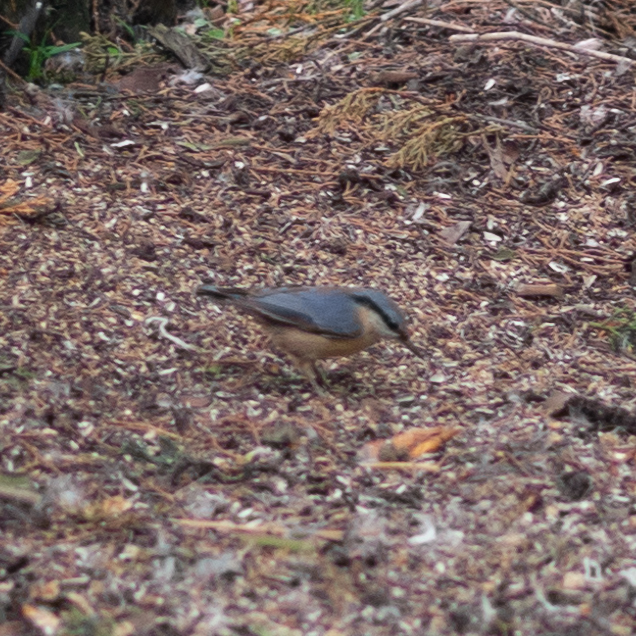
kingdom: Animalia
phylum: Chordata
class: Aves
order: Passeriformes
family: Sittidae
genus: Sitta
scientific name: Sitta europaea
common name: Eurasian nuthatch
